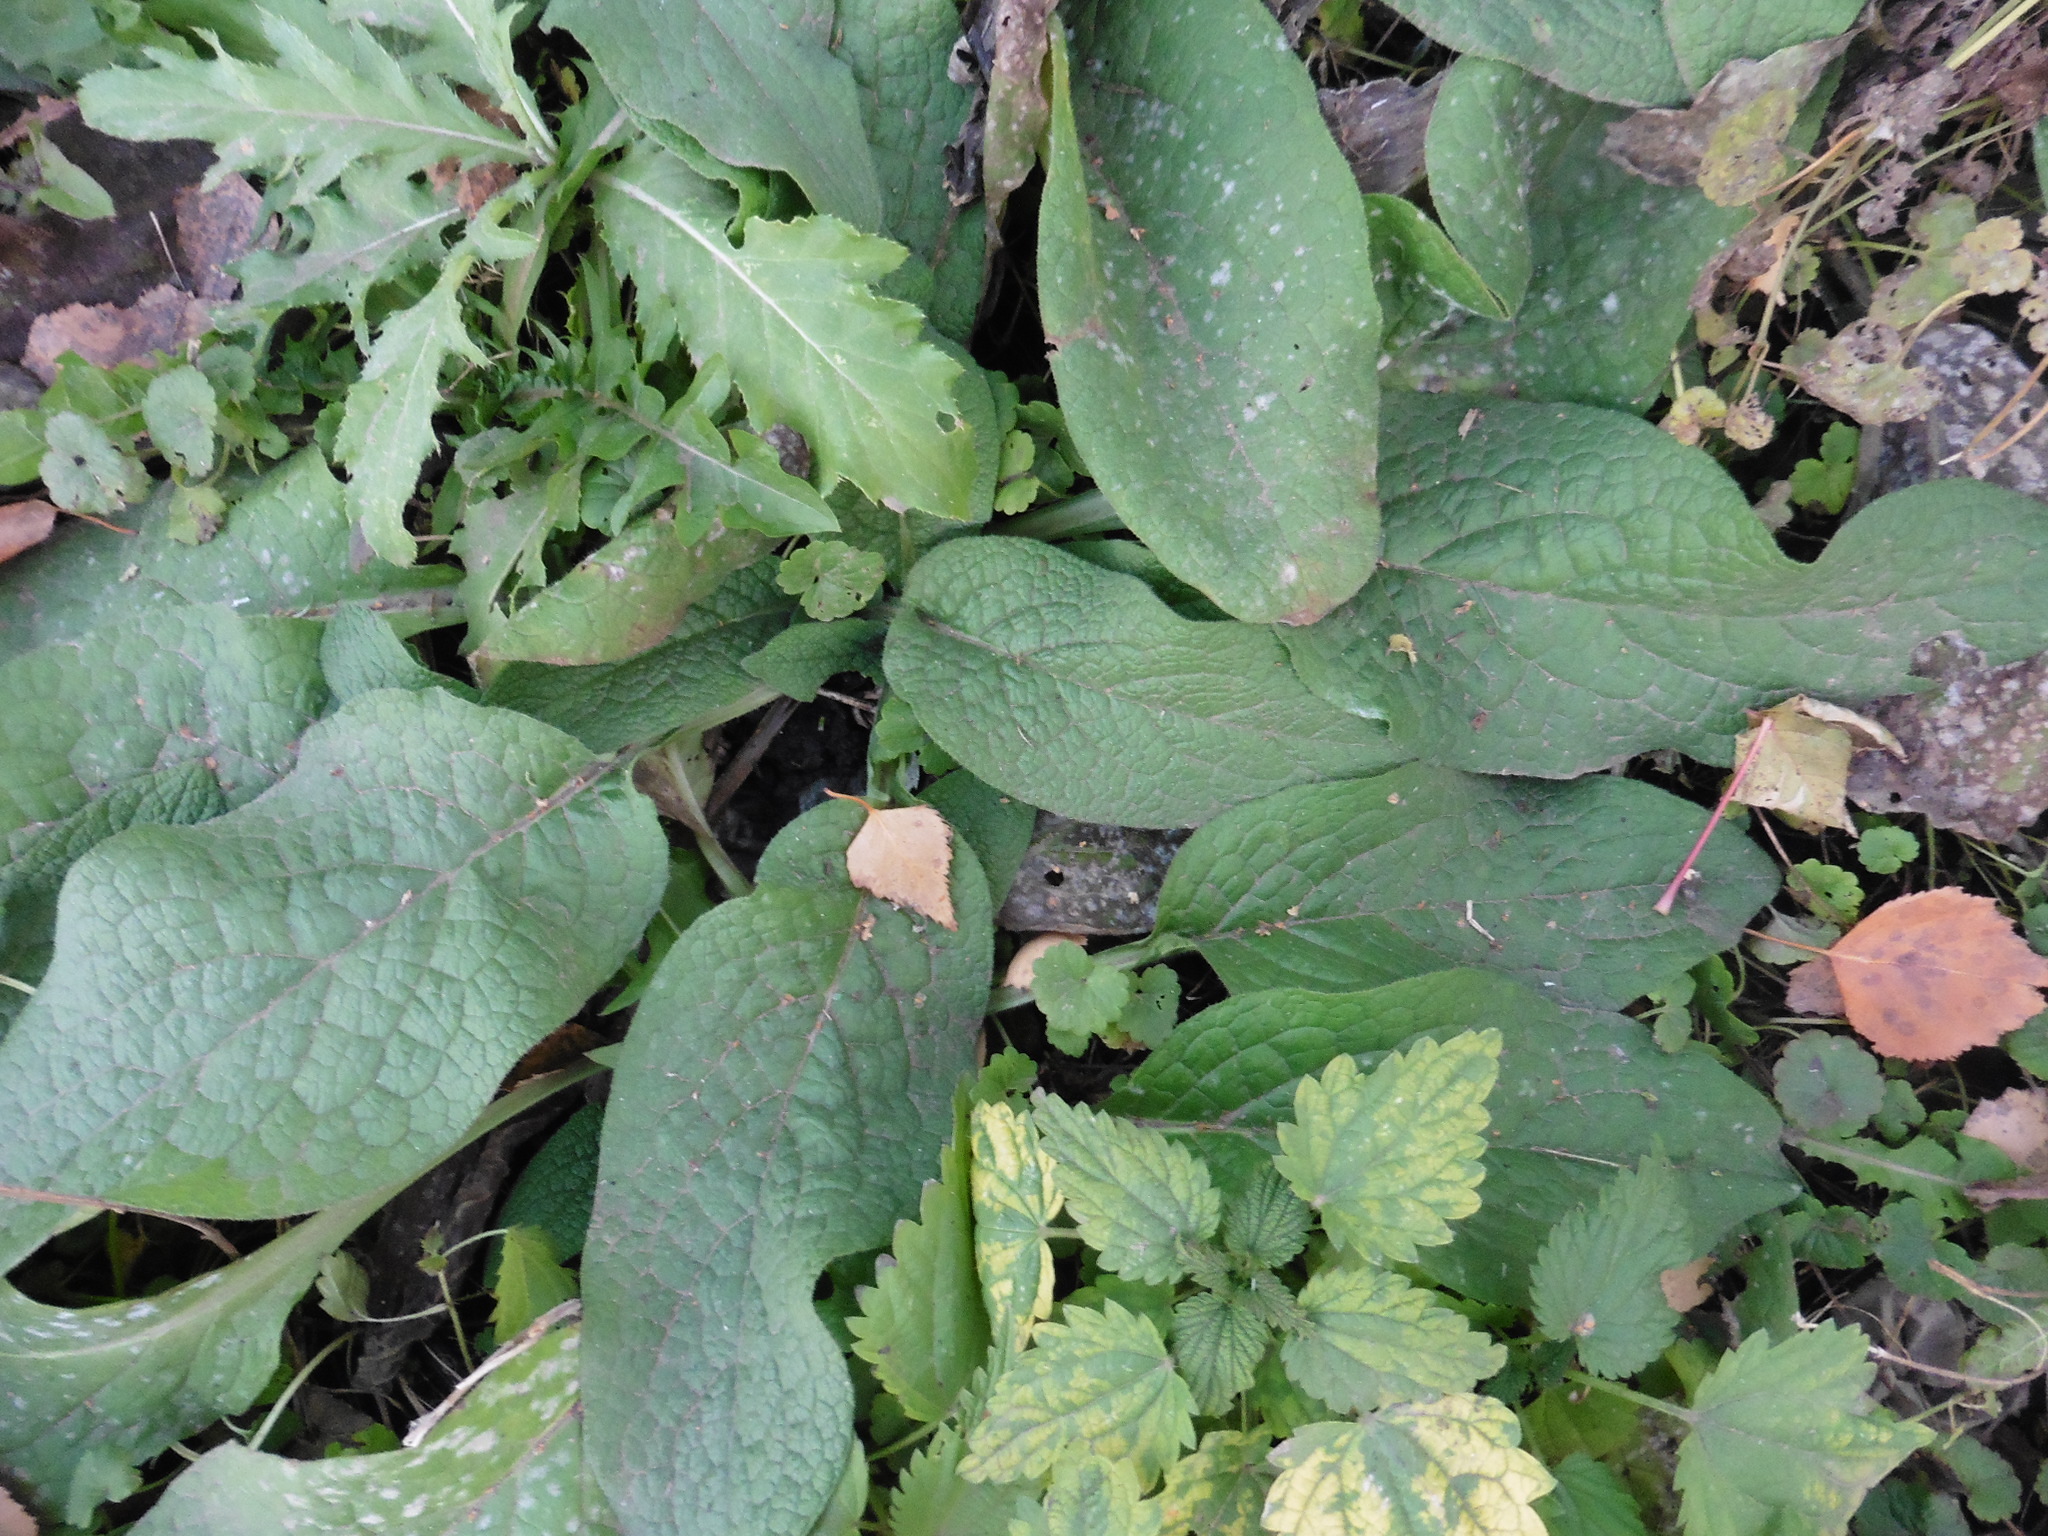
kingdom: Plantae
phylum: Tracheophyta
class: Magnoliopsida
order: Boraginales
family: Boraginaceae
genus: Symphytum
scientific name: Symphytum caucasicum
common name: Caucasian comfrey
